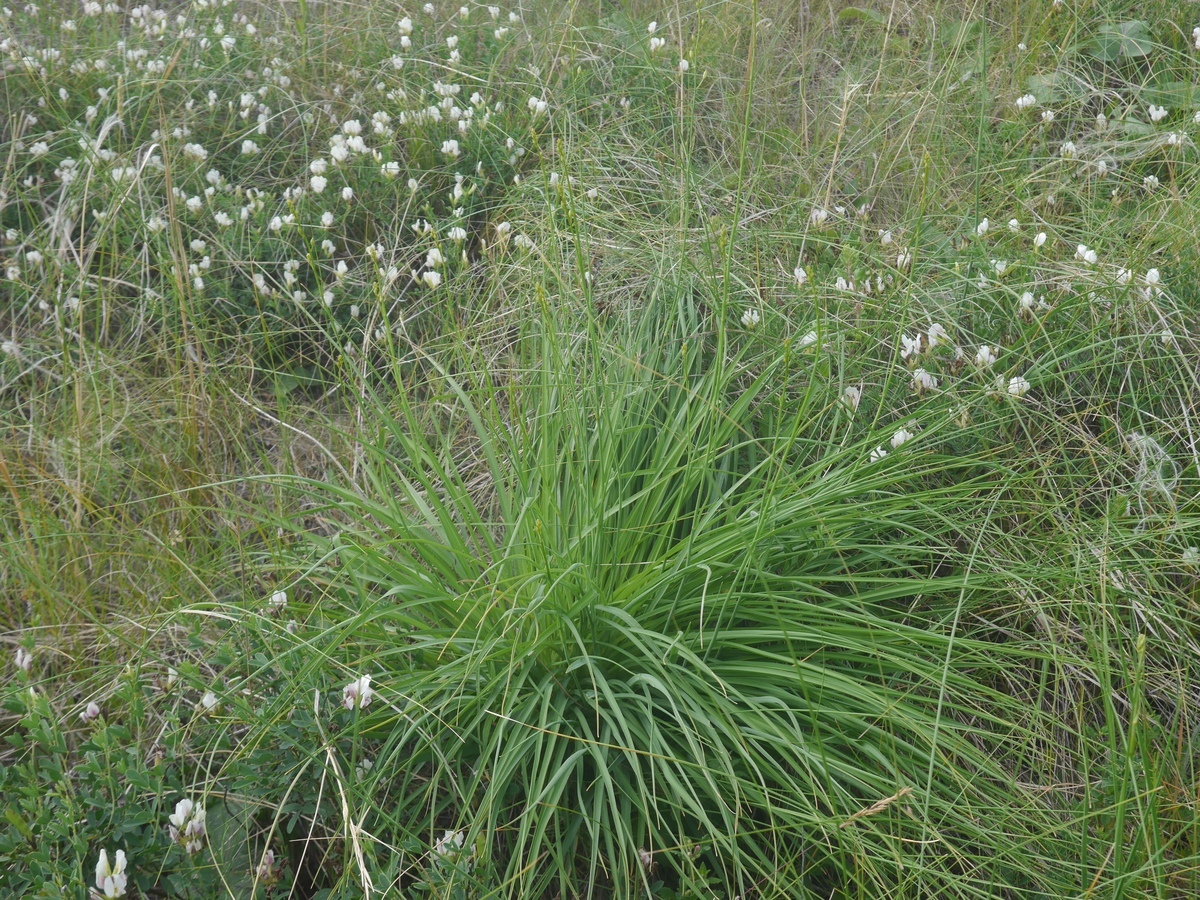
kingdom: Plantae
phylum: Tracheophyta
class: Liliopsida
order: Asparagales
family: Asparagaceae
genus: Anthericum
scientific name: Anthericum ramosum
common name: Branched st. bernard's-lily
